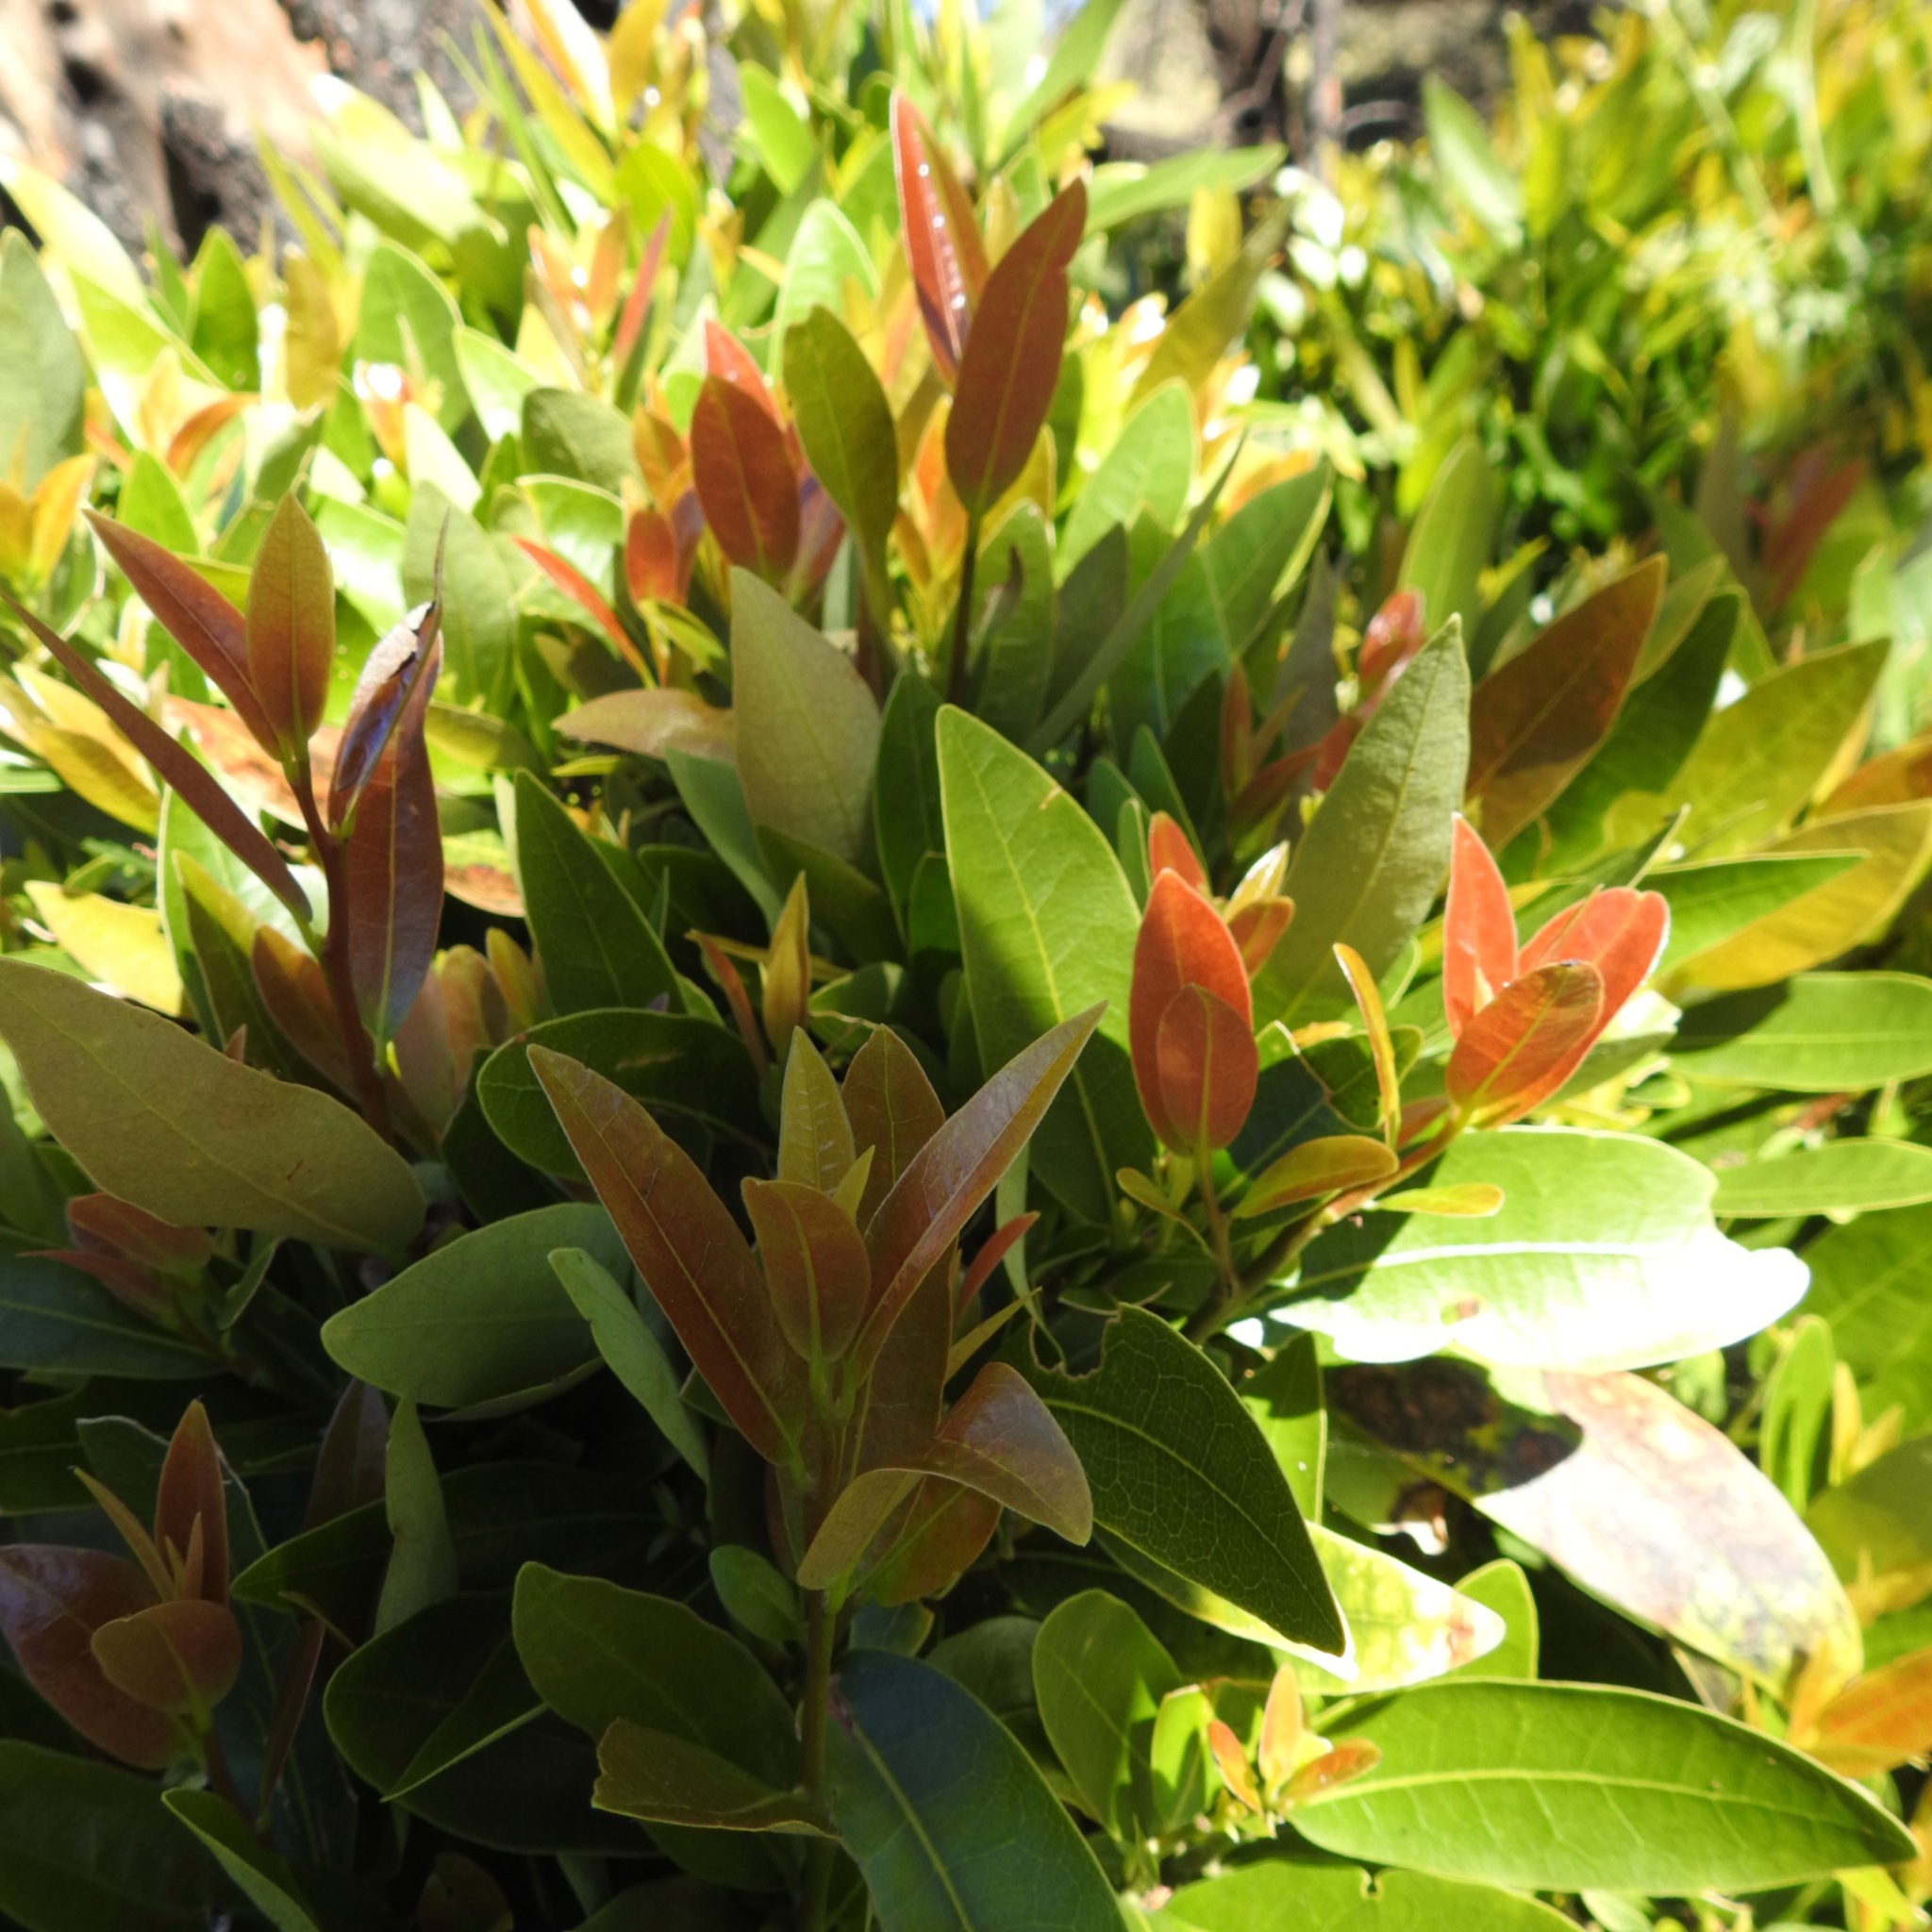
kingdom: Plantae
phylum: Tracheophyta
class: Magnoliopsida
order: Laurales
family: Lauraceae
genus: Umbellularia
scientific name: Umbellularia californica
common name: California bay
